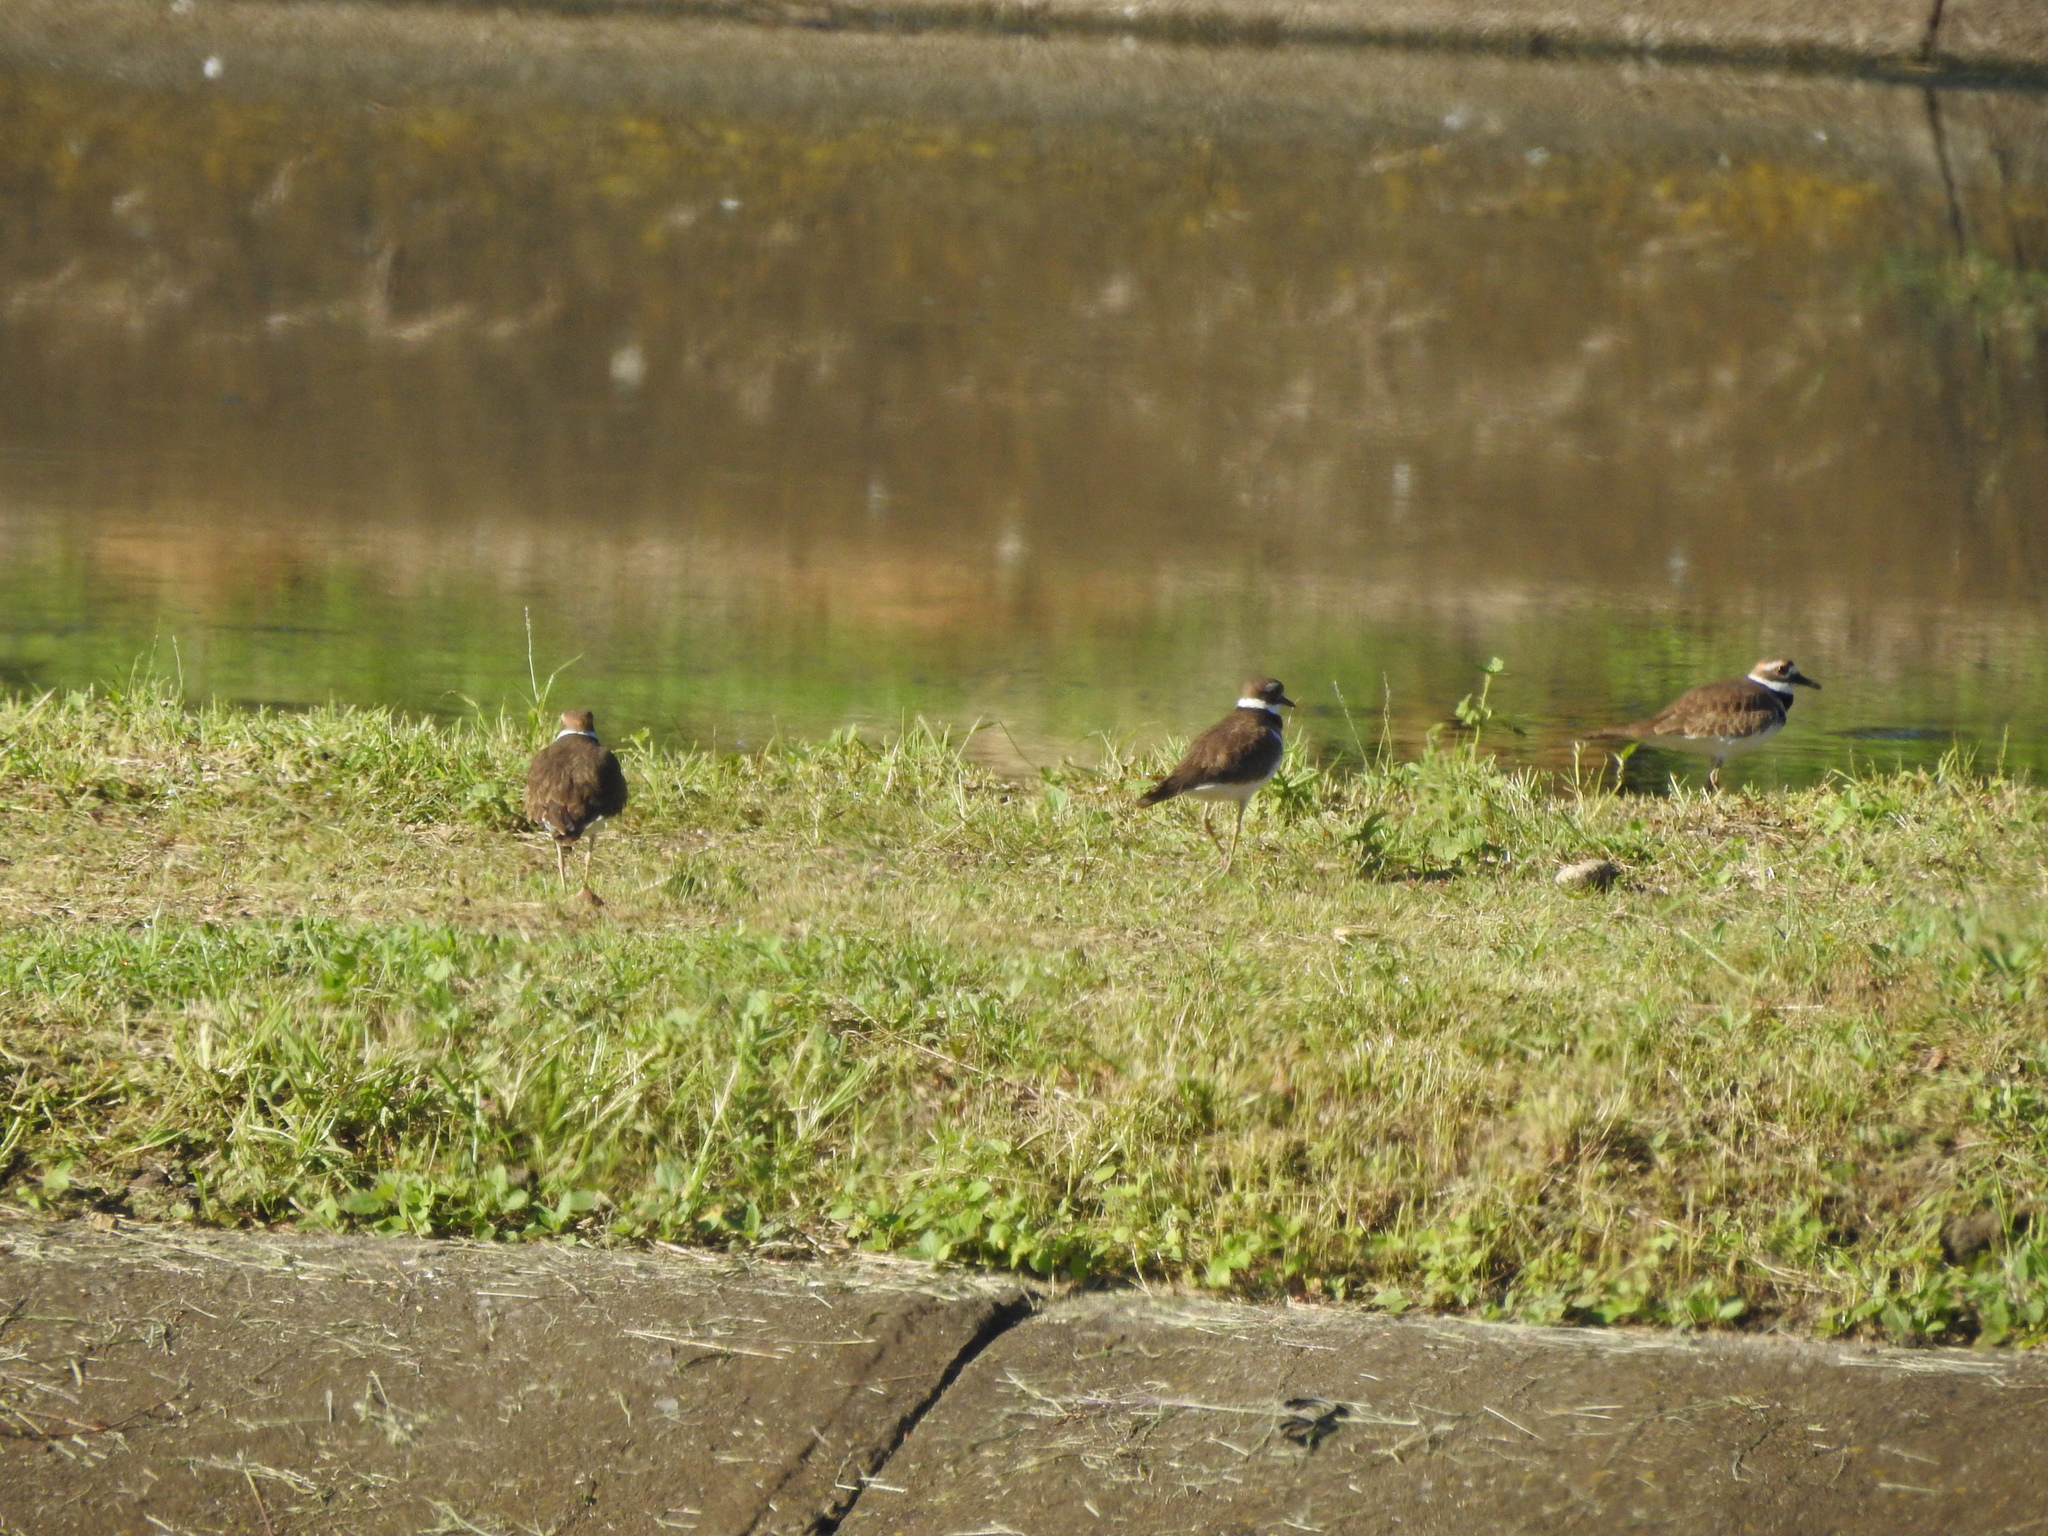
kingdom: Animalia
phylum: Chordata
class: Aves
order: Charadriiformes
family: Charadriidae
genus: Charadrius
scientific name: Charadrius vociferus
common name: Killdeer
